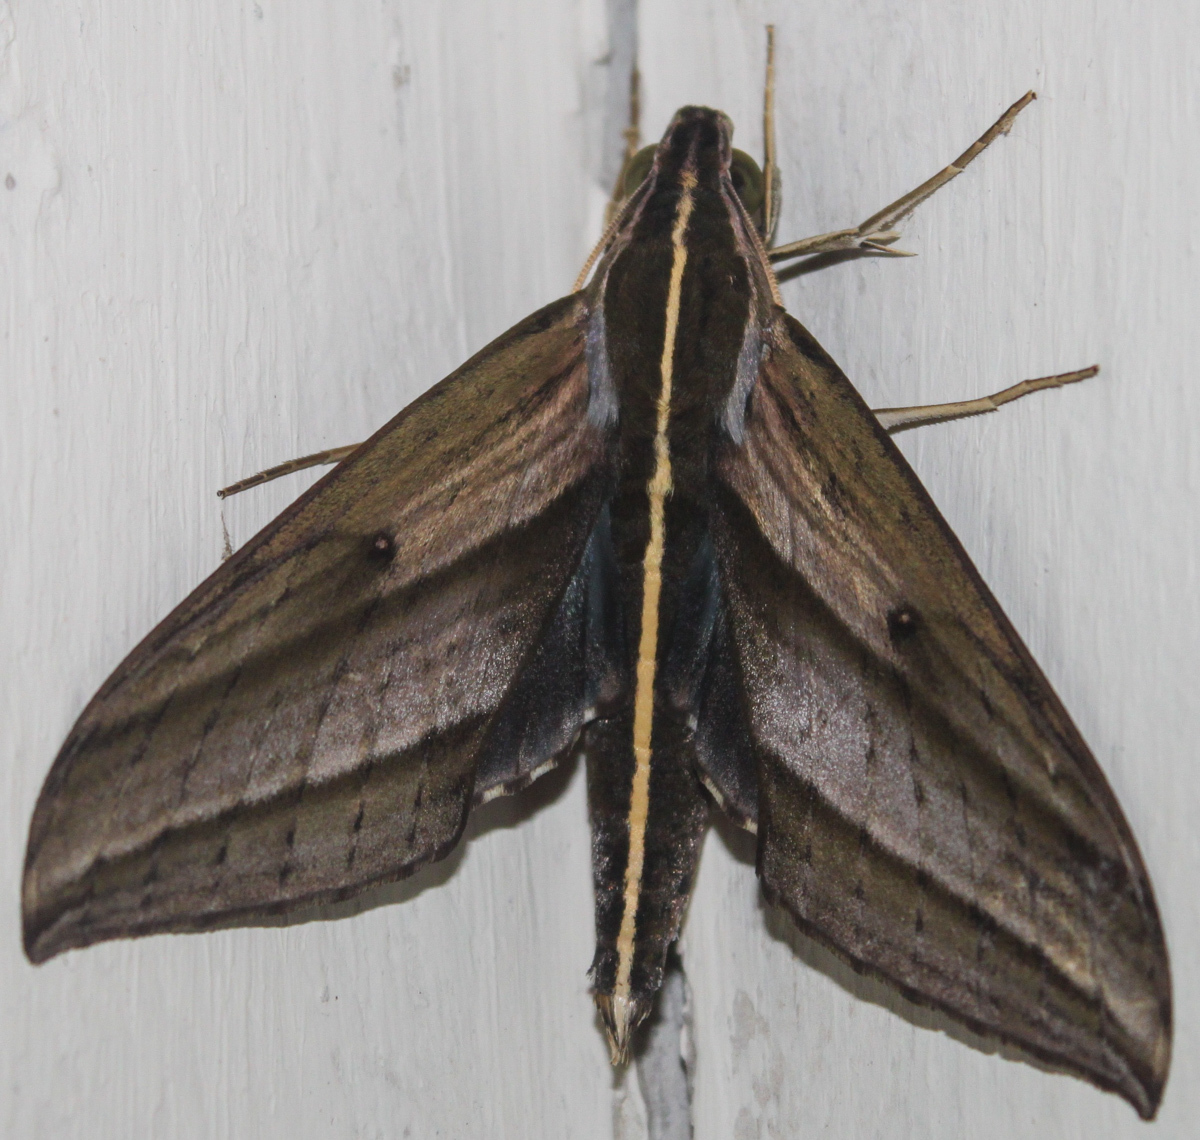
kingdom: Animalia
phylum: Arthropoda
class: Insecta
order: Lepidoptera
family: Sphingidae
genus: Elibia
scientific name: Elibia dolichus
